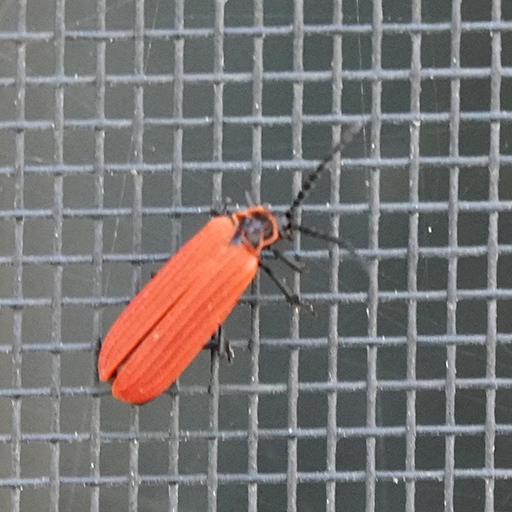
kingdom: Animalia
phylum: Arthropoda
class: Insecta
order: Coleoptera
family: Lycidae
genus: Dictyoptera
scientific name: Dictyoptera aurora
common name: Golden net-winged beetle
